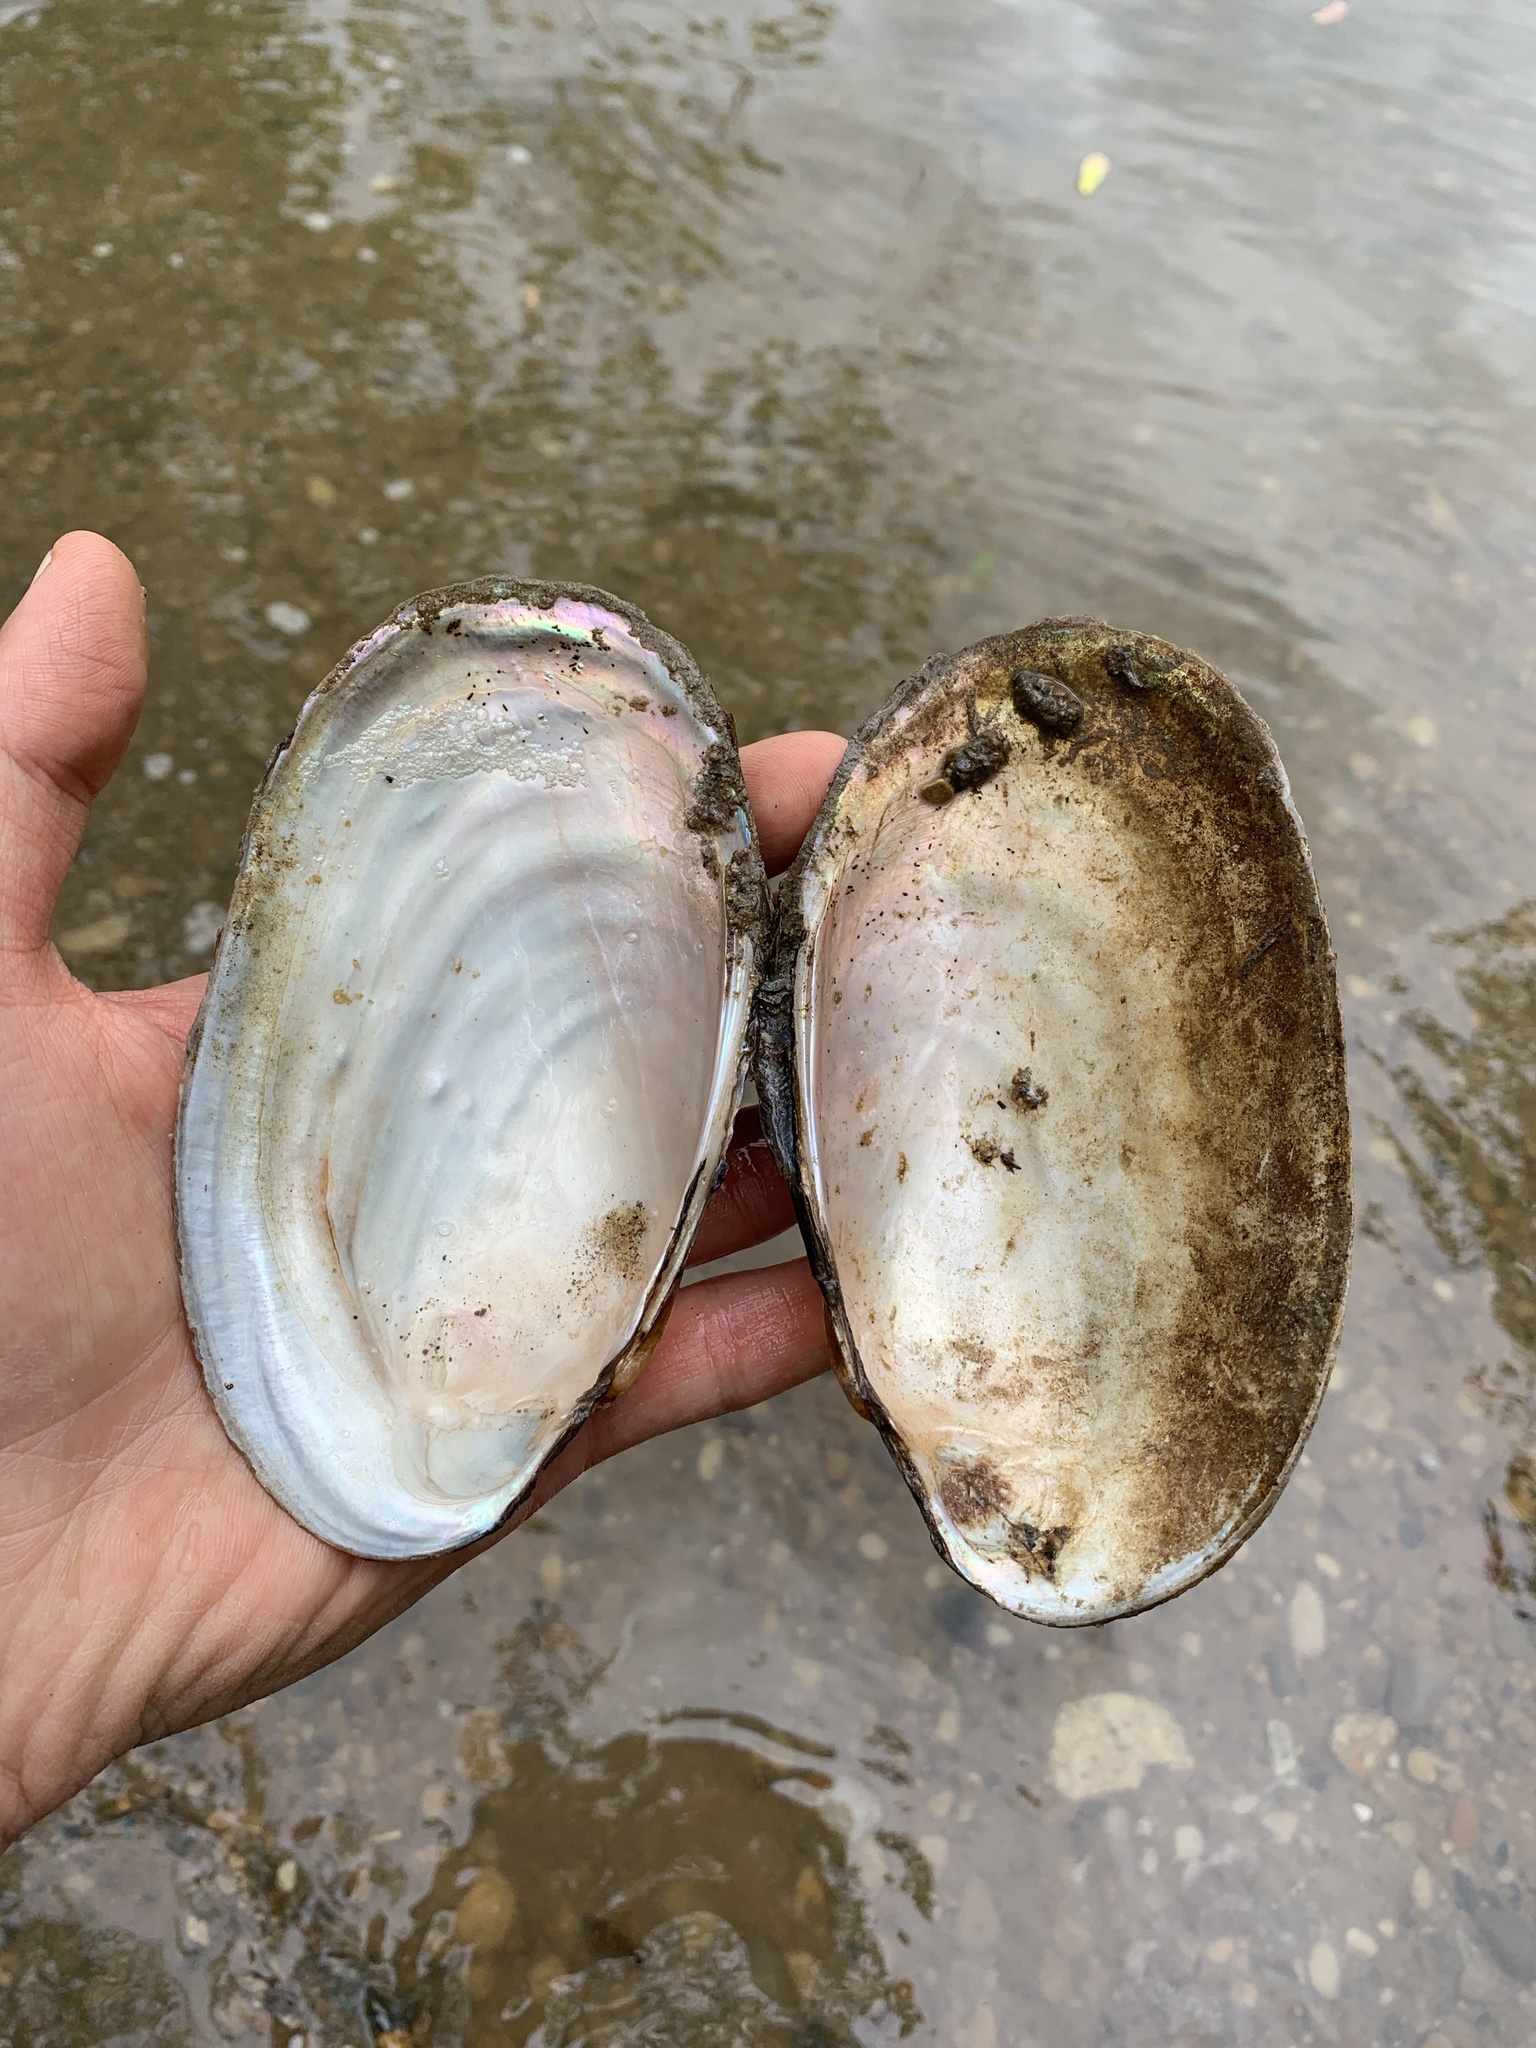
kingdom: Animalia
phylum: Mollusca
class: Bivalvia
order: Unionida
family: Unionidae
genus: Potamilus
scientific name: Potamilus fragilis
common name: Fragile papershell
